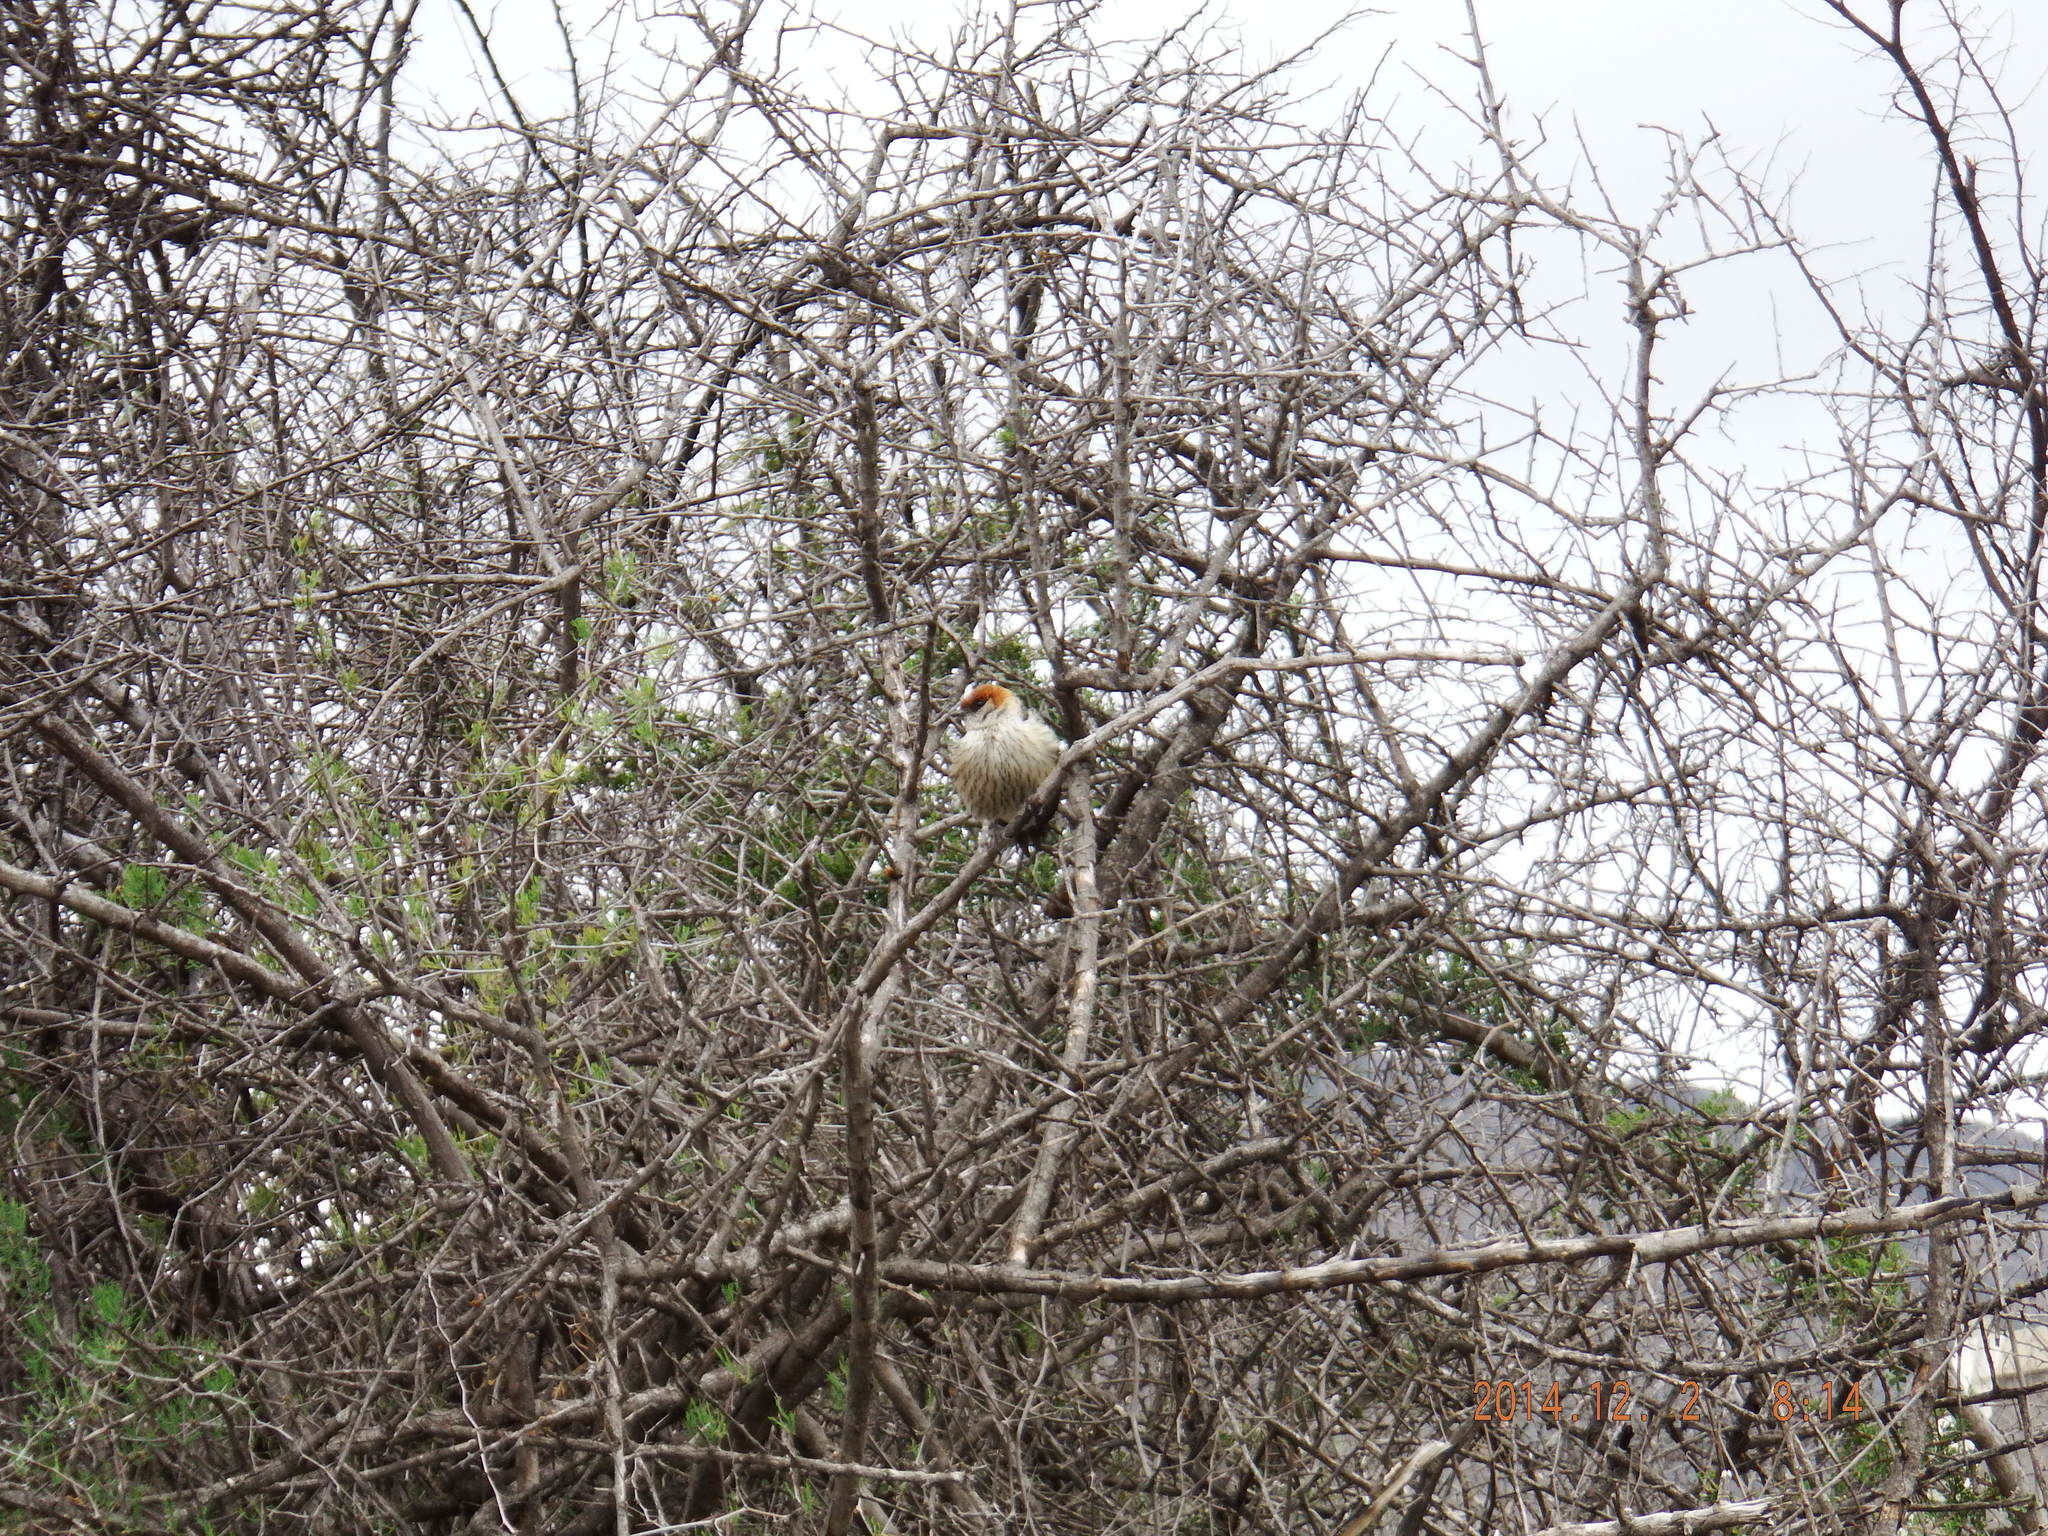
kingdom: Animalia
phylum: Chordata
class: Aves
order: Passeriformes
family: Hirundinidae
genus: Cecropis
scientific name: Cecropis cucullata
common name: Greater striped-swallow
